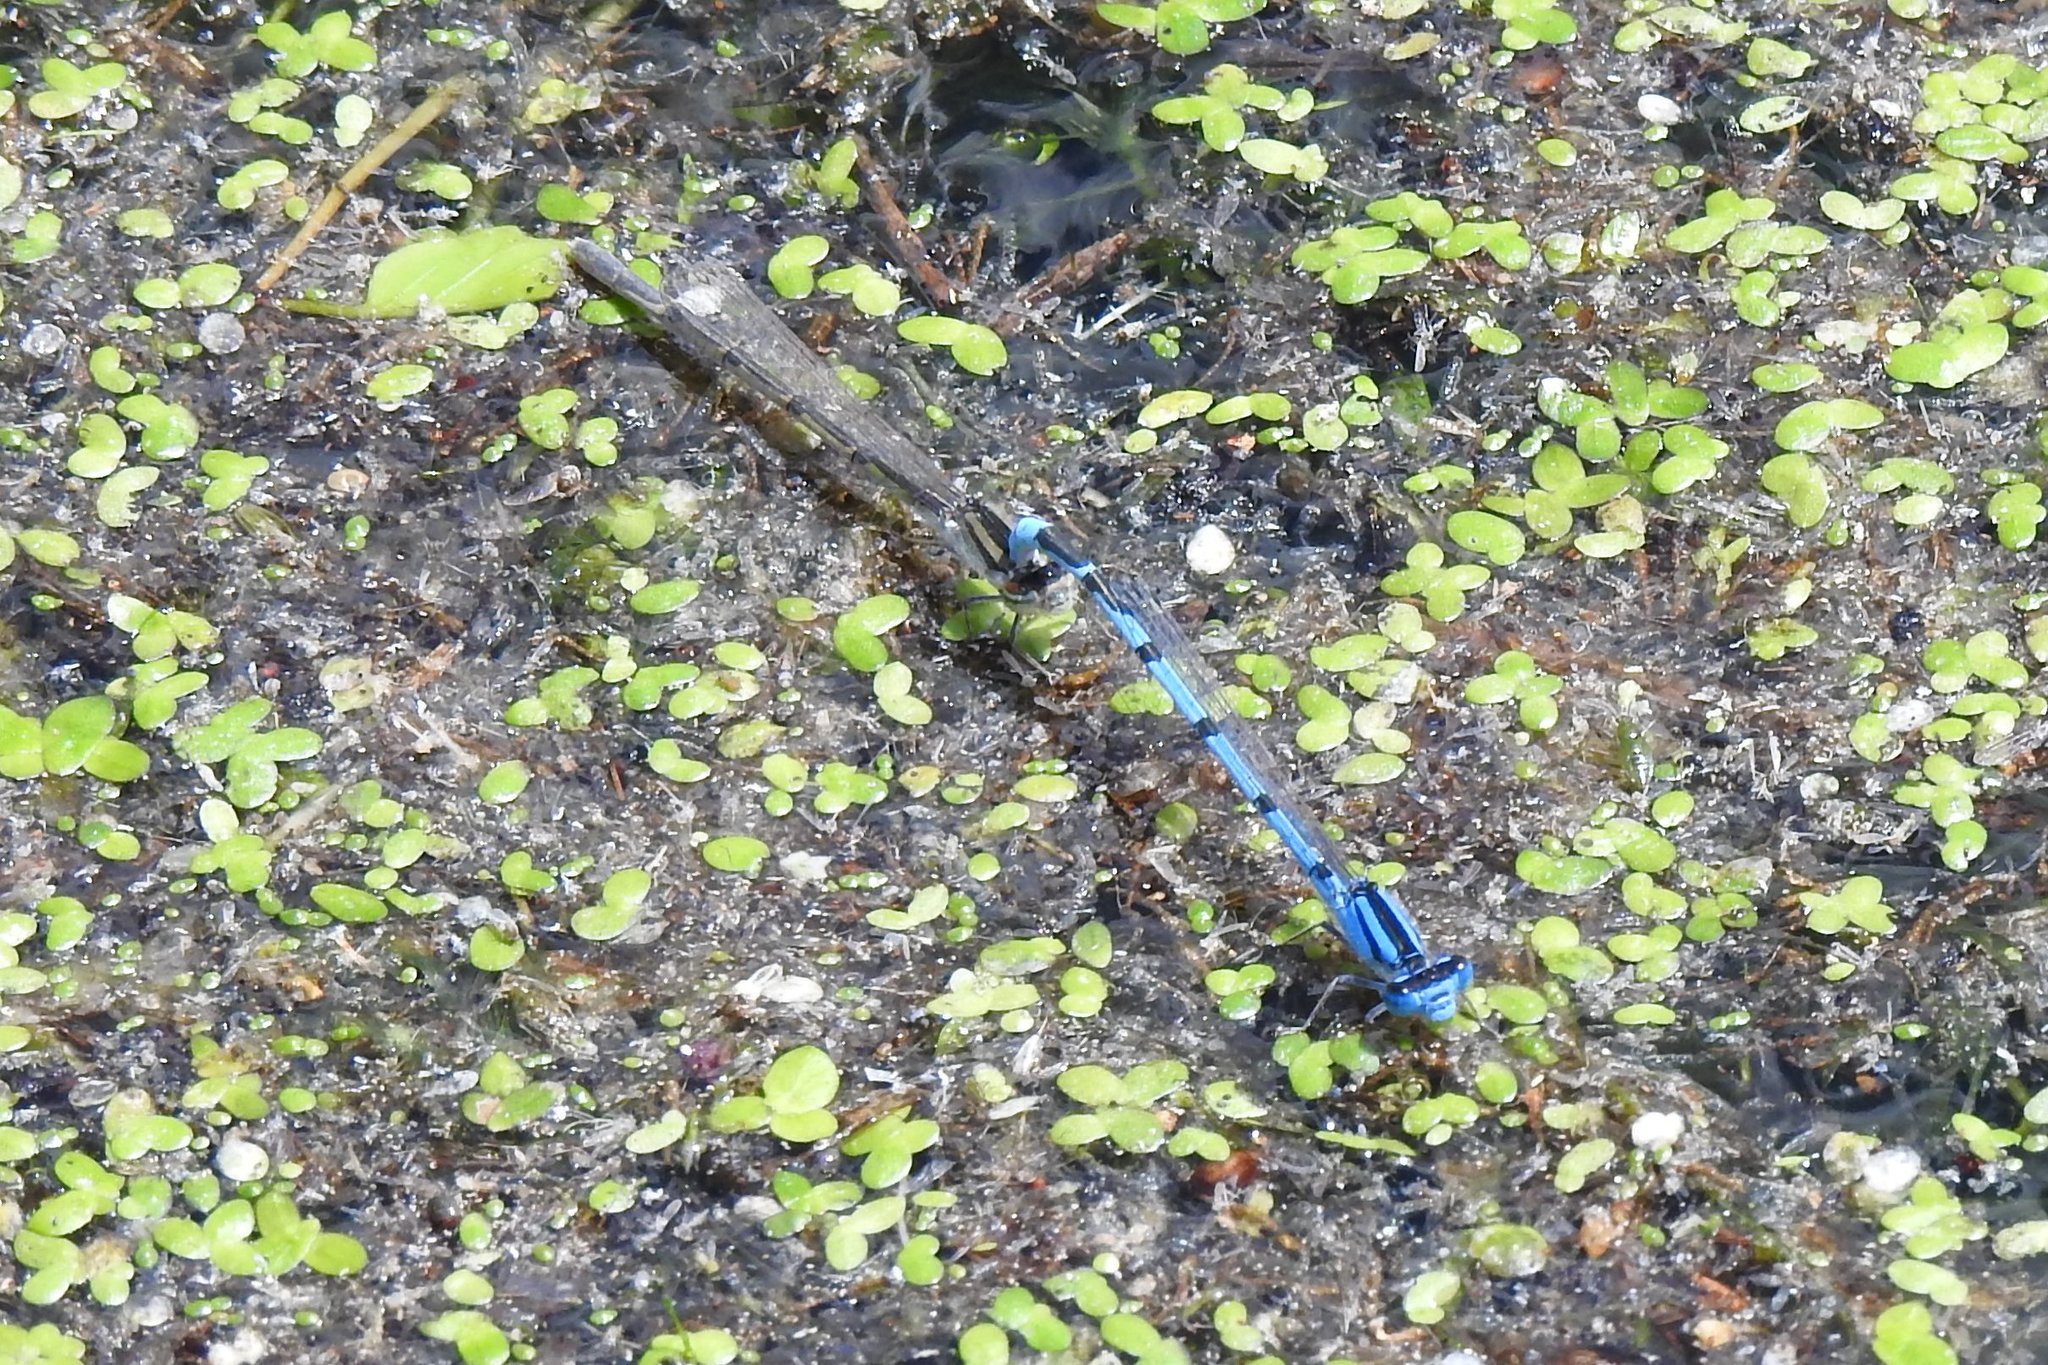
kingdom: Animalia
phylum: Arthropoda
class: Insecta
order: Odonata
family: Coenagrionidae
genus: Enallagma
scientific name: Enallagma civile
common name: Damselfly
